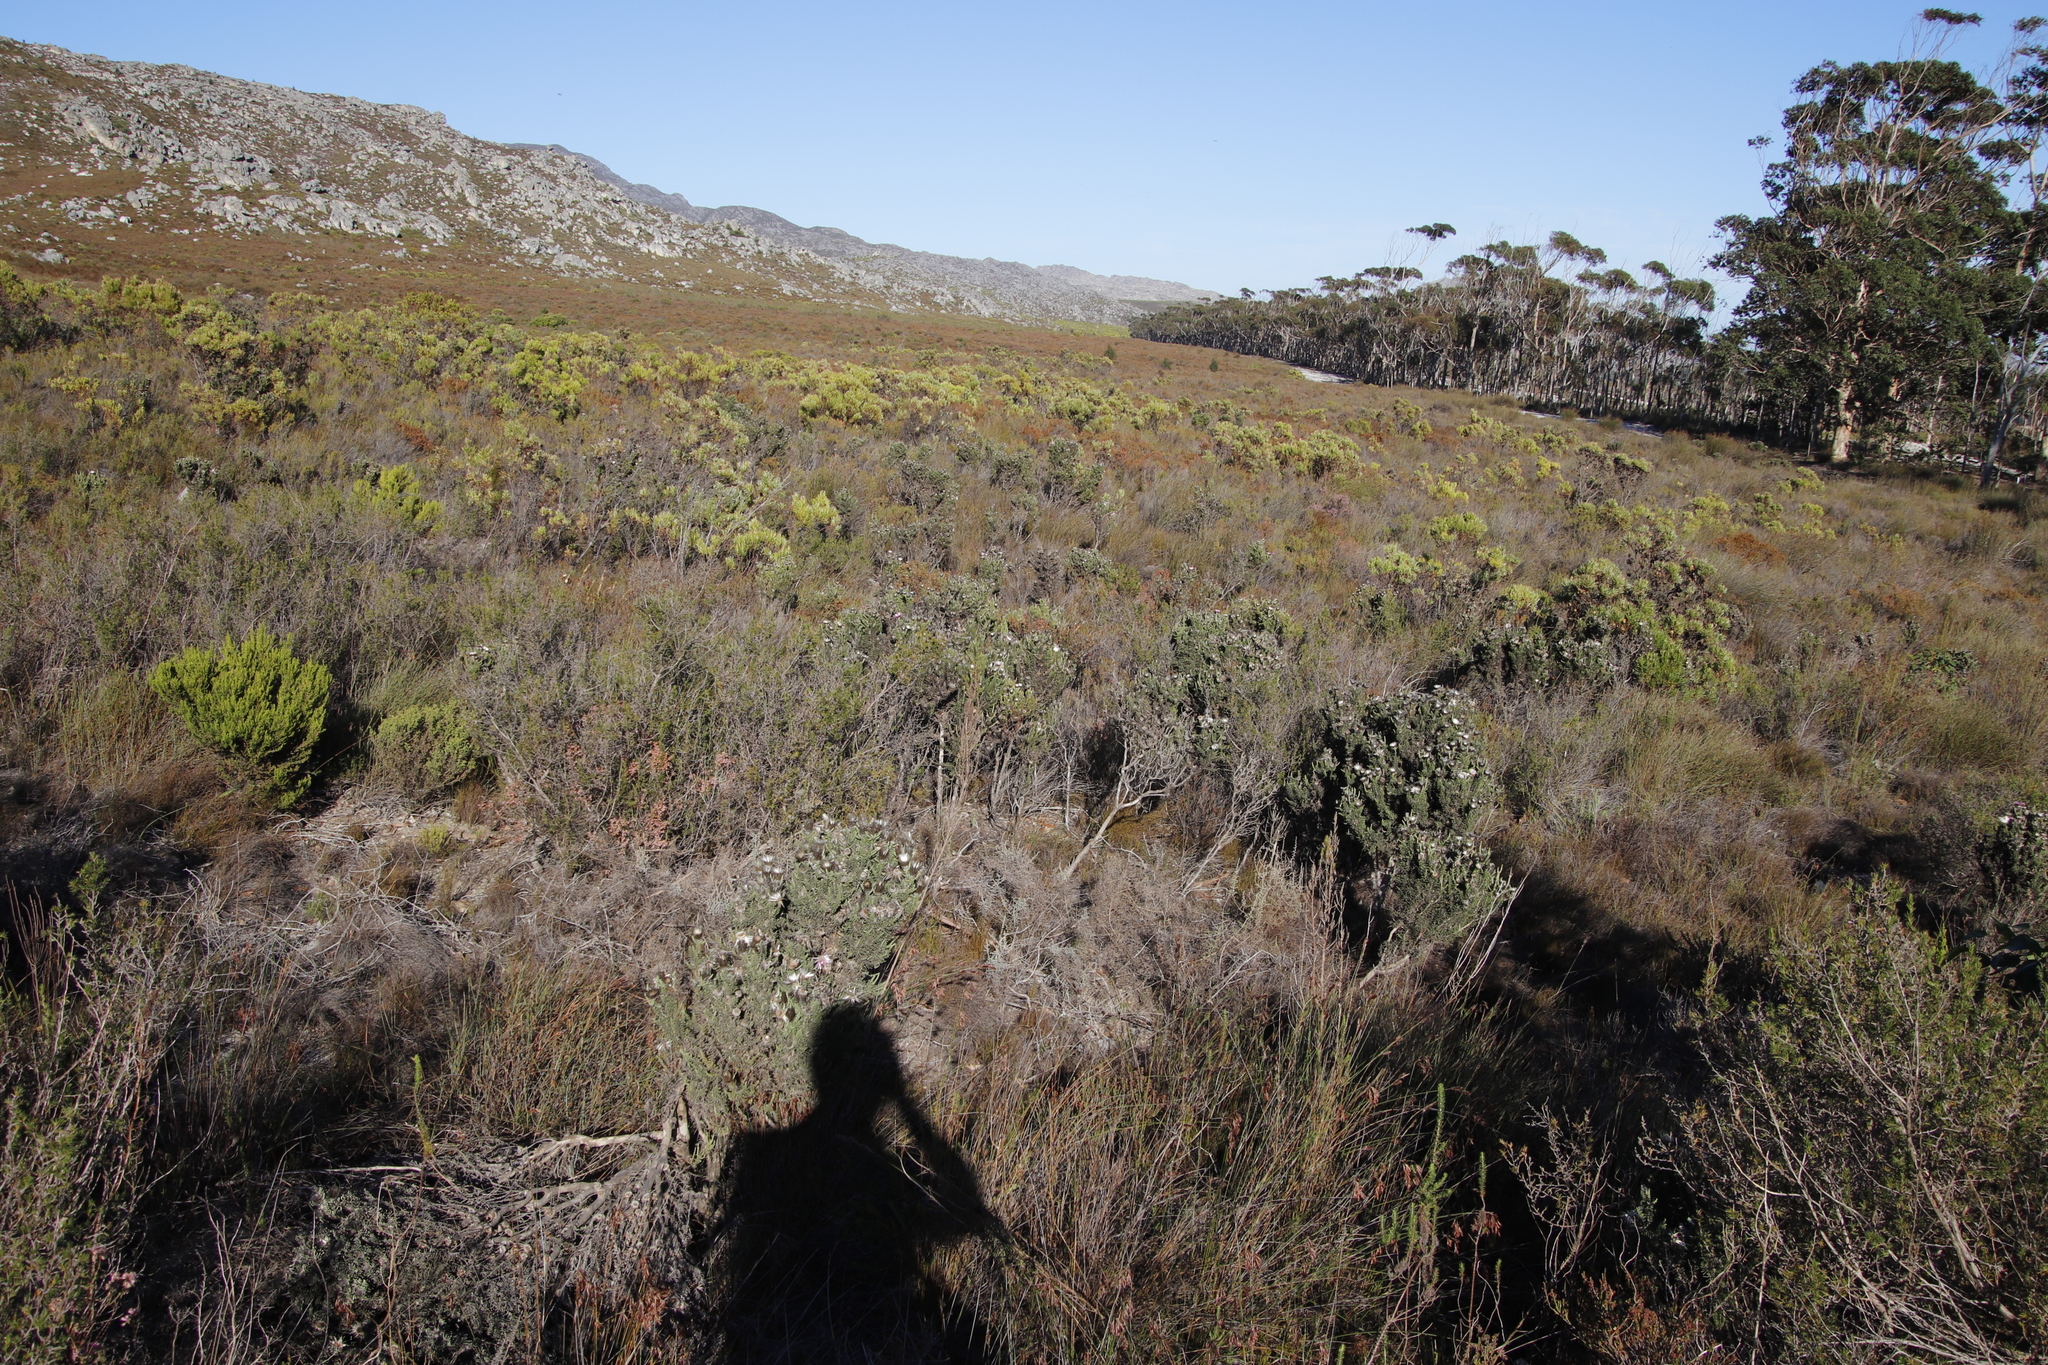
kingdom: Plantae
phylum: Tracheophyta
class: Magnoliopsida
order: Asterales
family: Asteraceae
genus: Phaenocoma
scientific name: Phaenocoma prolifera
